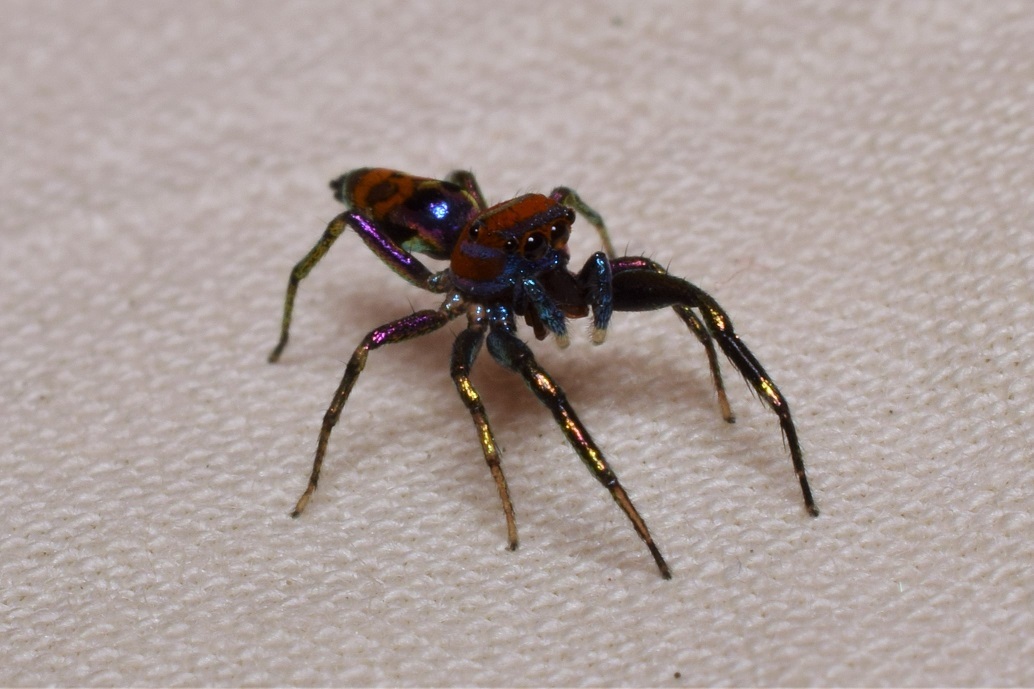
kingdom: Animalia
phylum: Arthropoda
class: Arachnida
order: Araneae
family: Salticidae
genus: Chrysilla
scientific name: Chrysilla volupe
